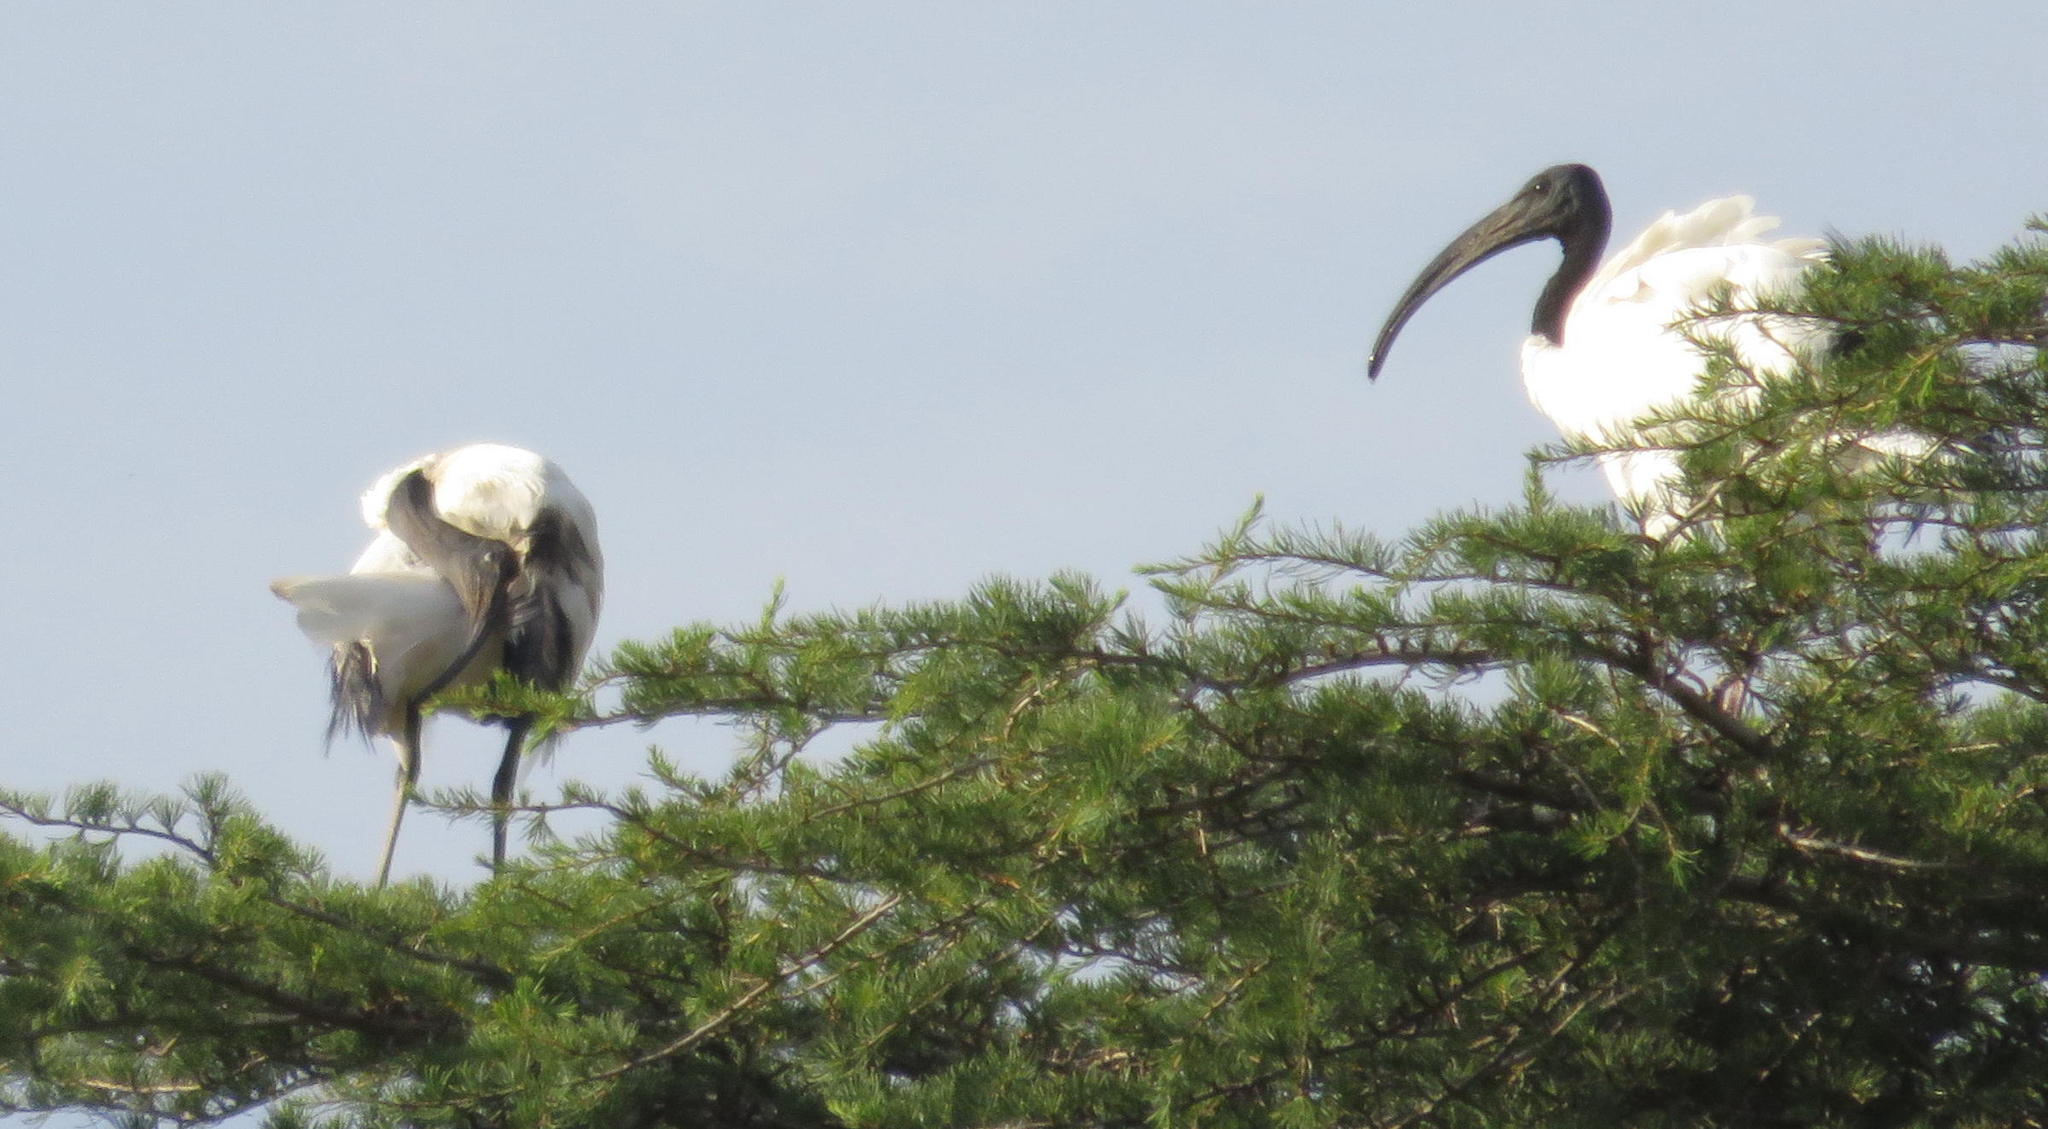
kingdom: Animalia
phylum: Chordata
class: Aves
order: Pelecaniformes
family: Threskiornithidae
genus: Threskiornis
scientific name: Threskiornis aethiopicus
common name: Sacred ibis
